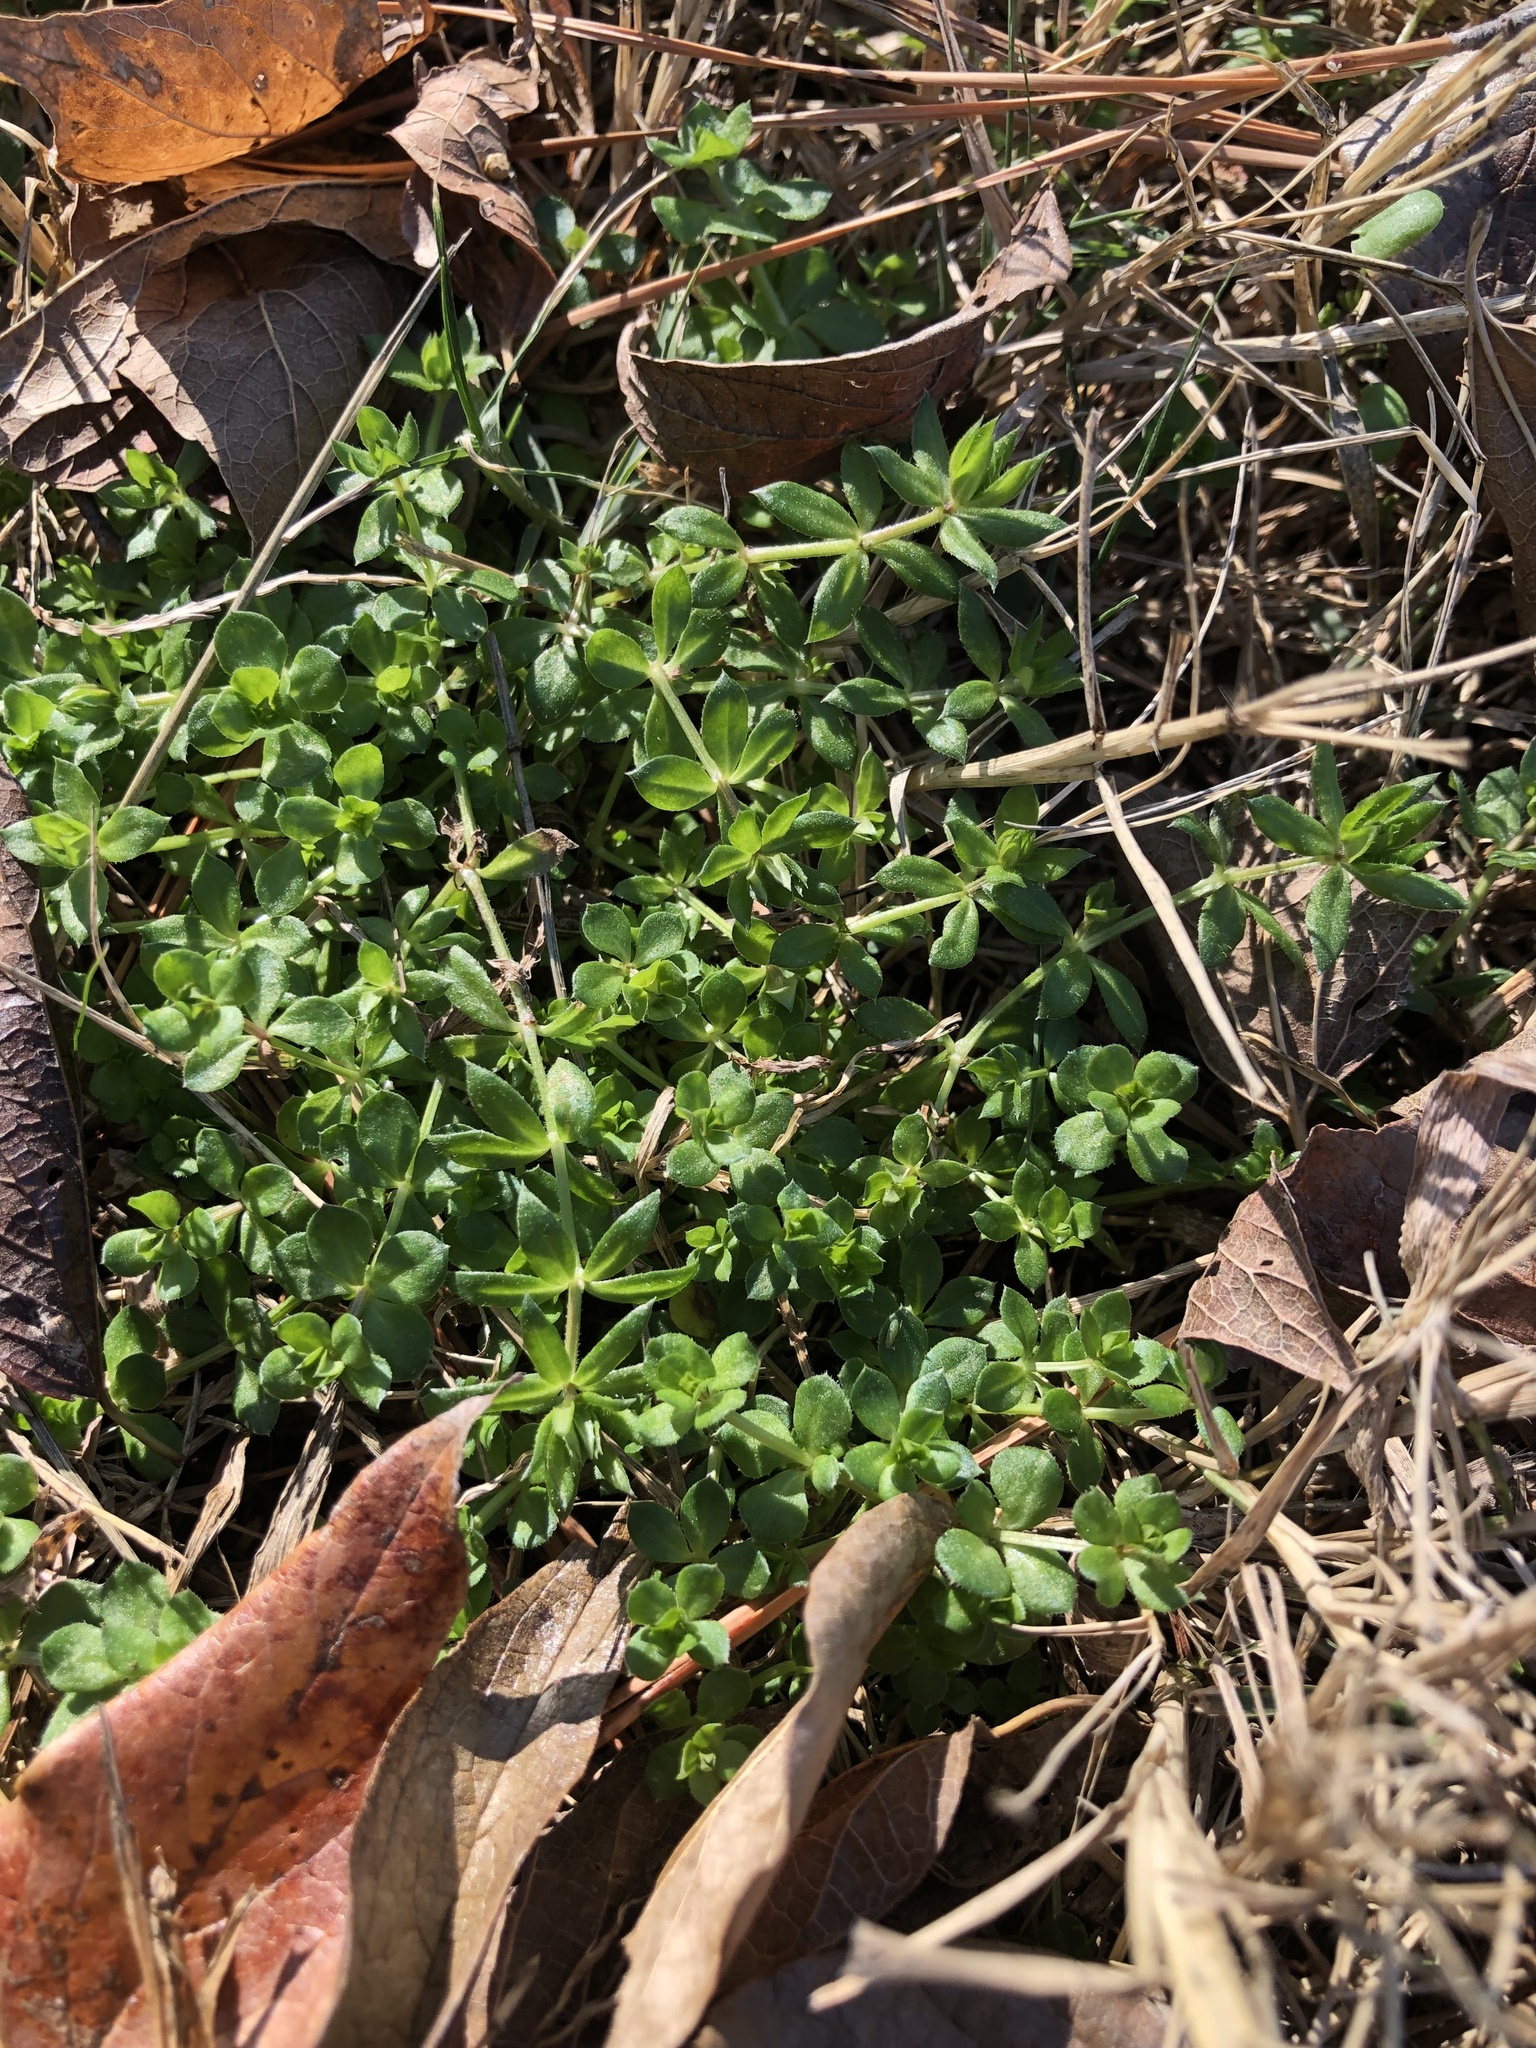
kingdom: Plantae
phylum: Tracheophyta
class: Magnoliopsida
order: Gentianales
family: Rubiaceae
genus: Sherardia
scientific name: Sherardia arvensis
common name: Field madder
